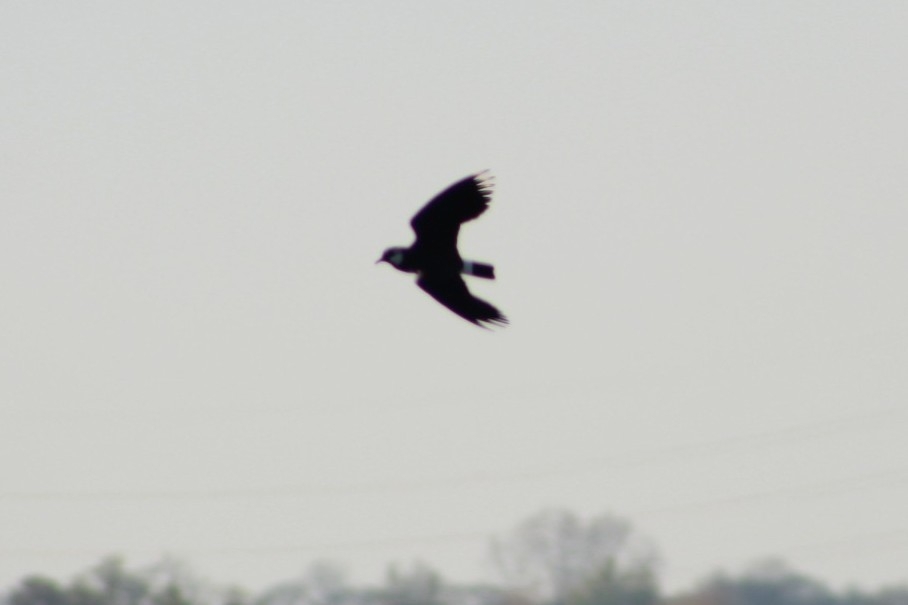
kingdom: Animalia
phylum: Chordata
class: Aves
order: Charadriiformes
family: Charadriidae
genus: Vanellus
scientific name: Vanellus vanellus
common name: Northern lapwing
